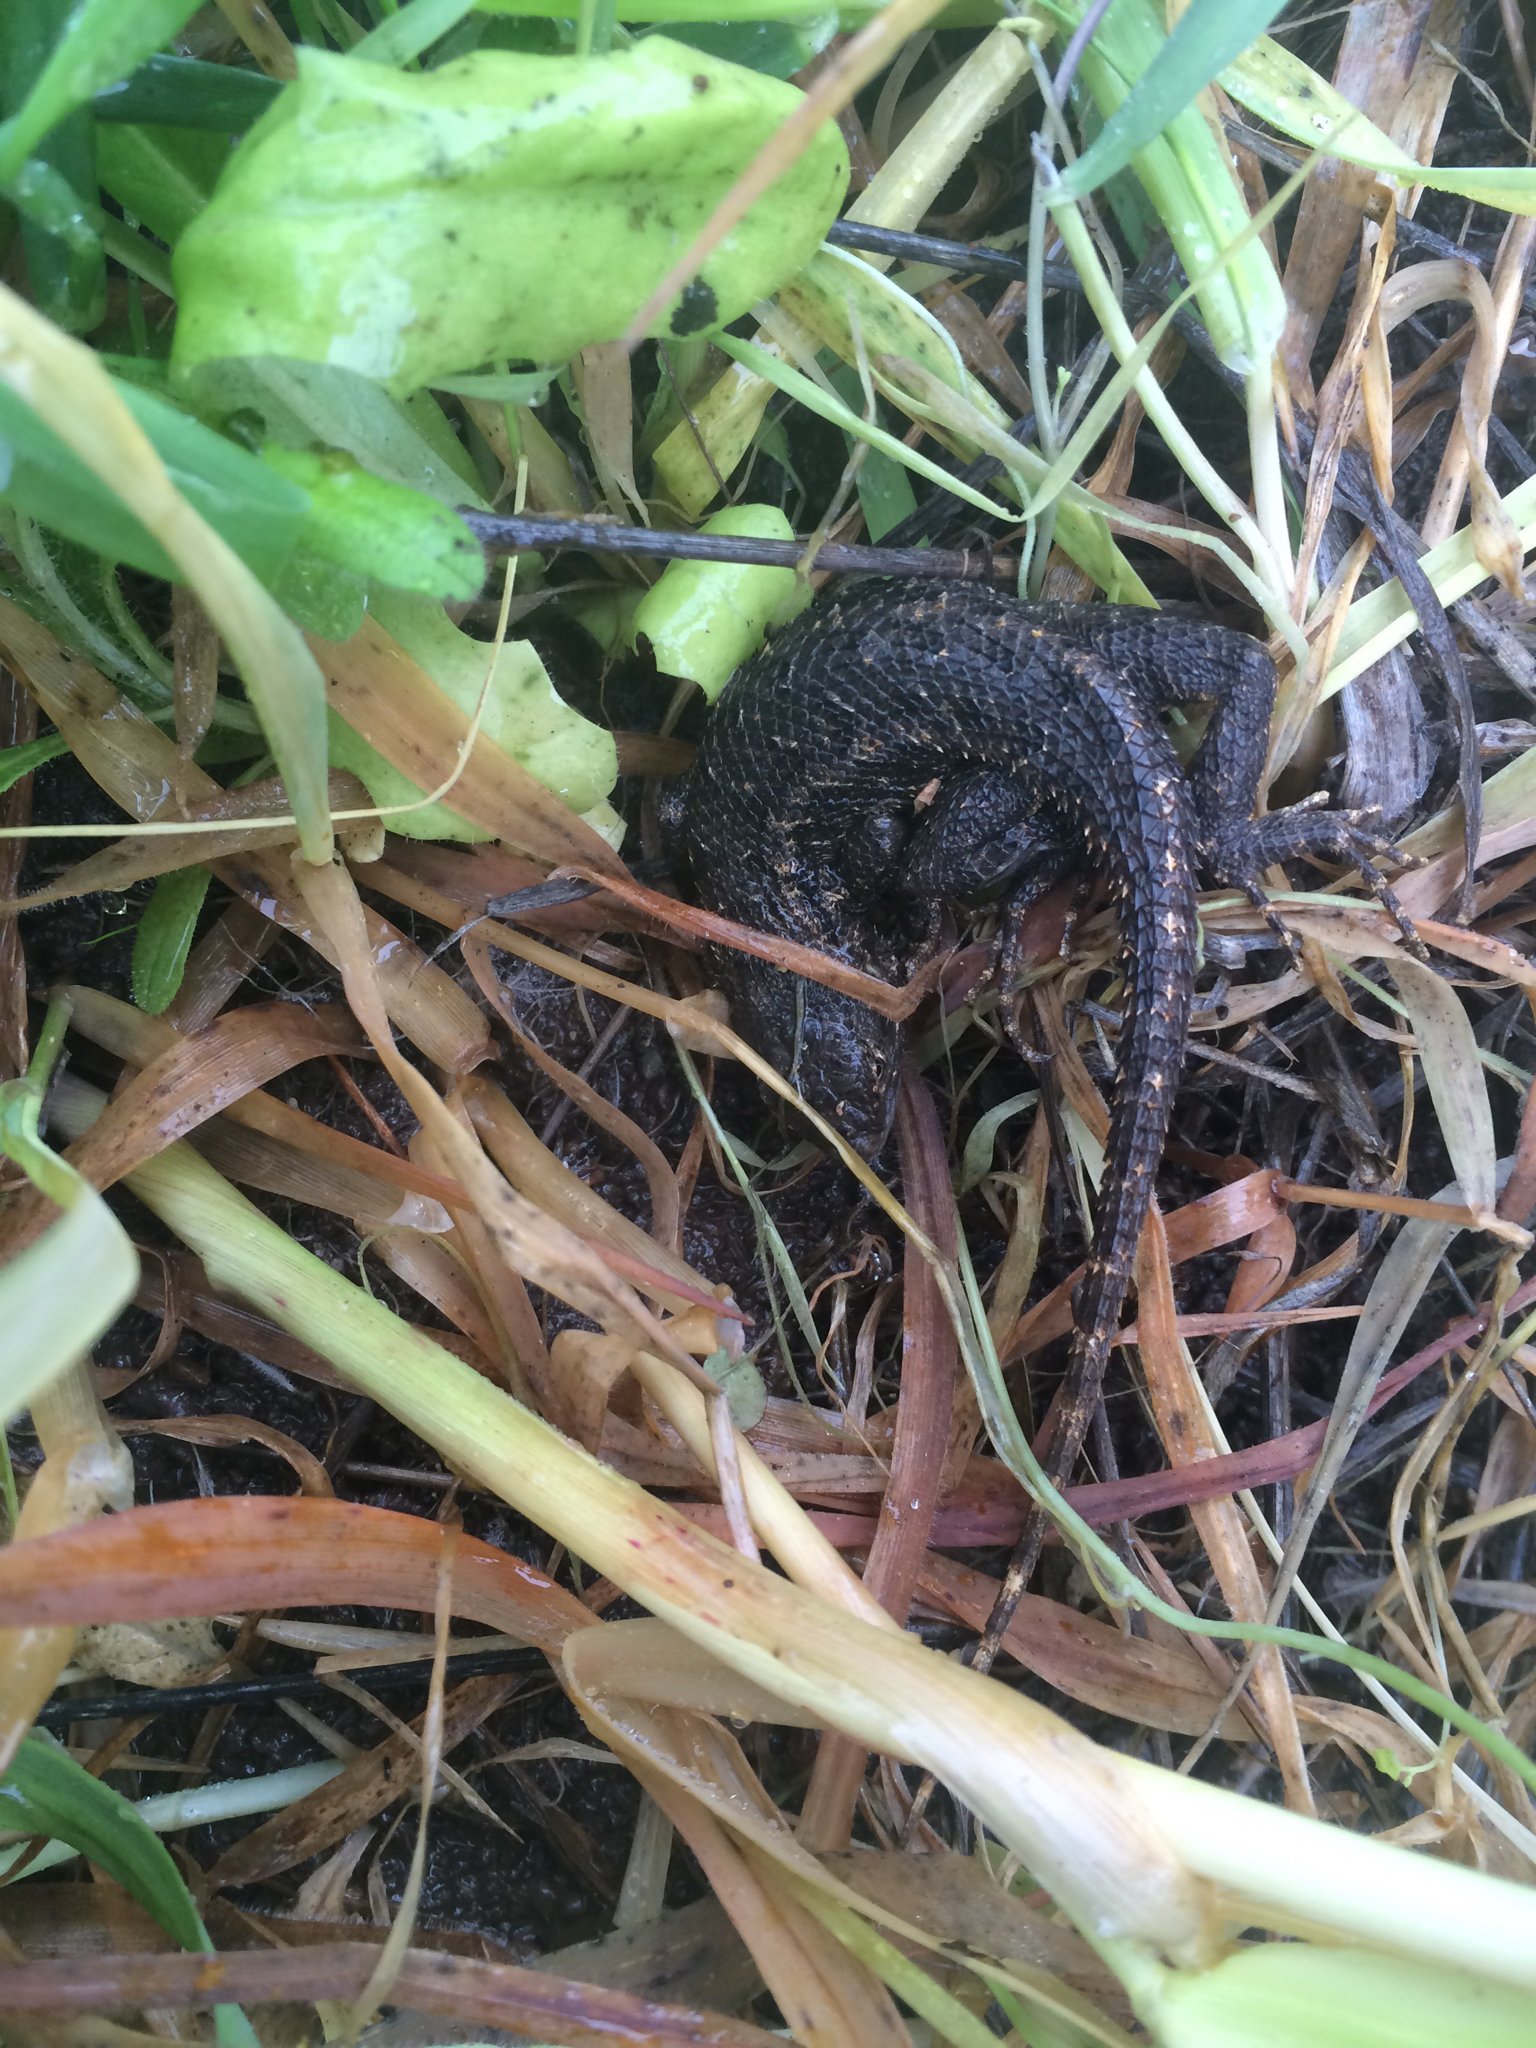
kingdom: Animalia
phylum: Chordata
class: Squamata
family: Phrynosomatidae
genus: Sceloporus
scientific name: Sceloporus occidentalis
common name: Western fence lizard
